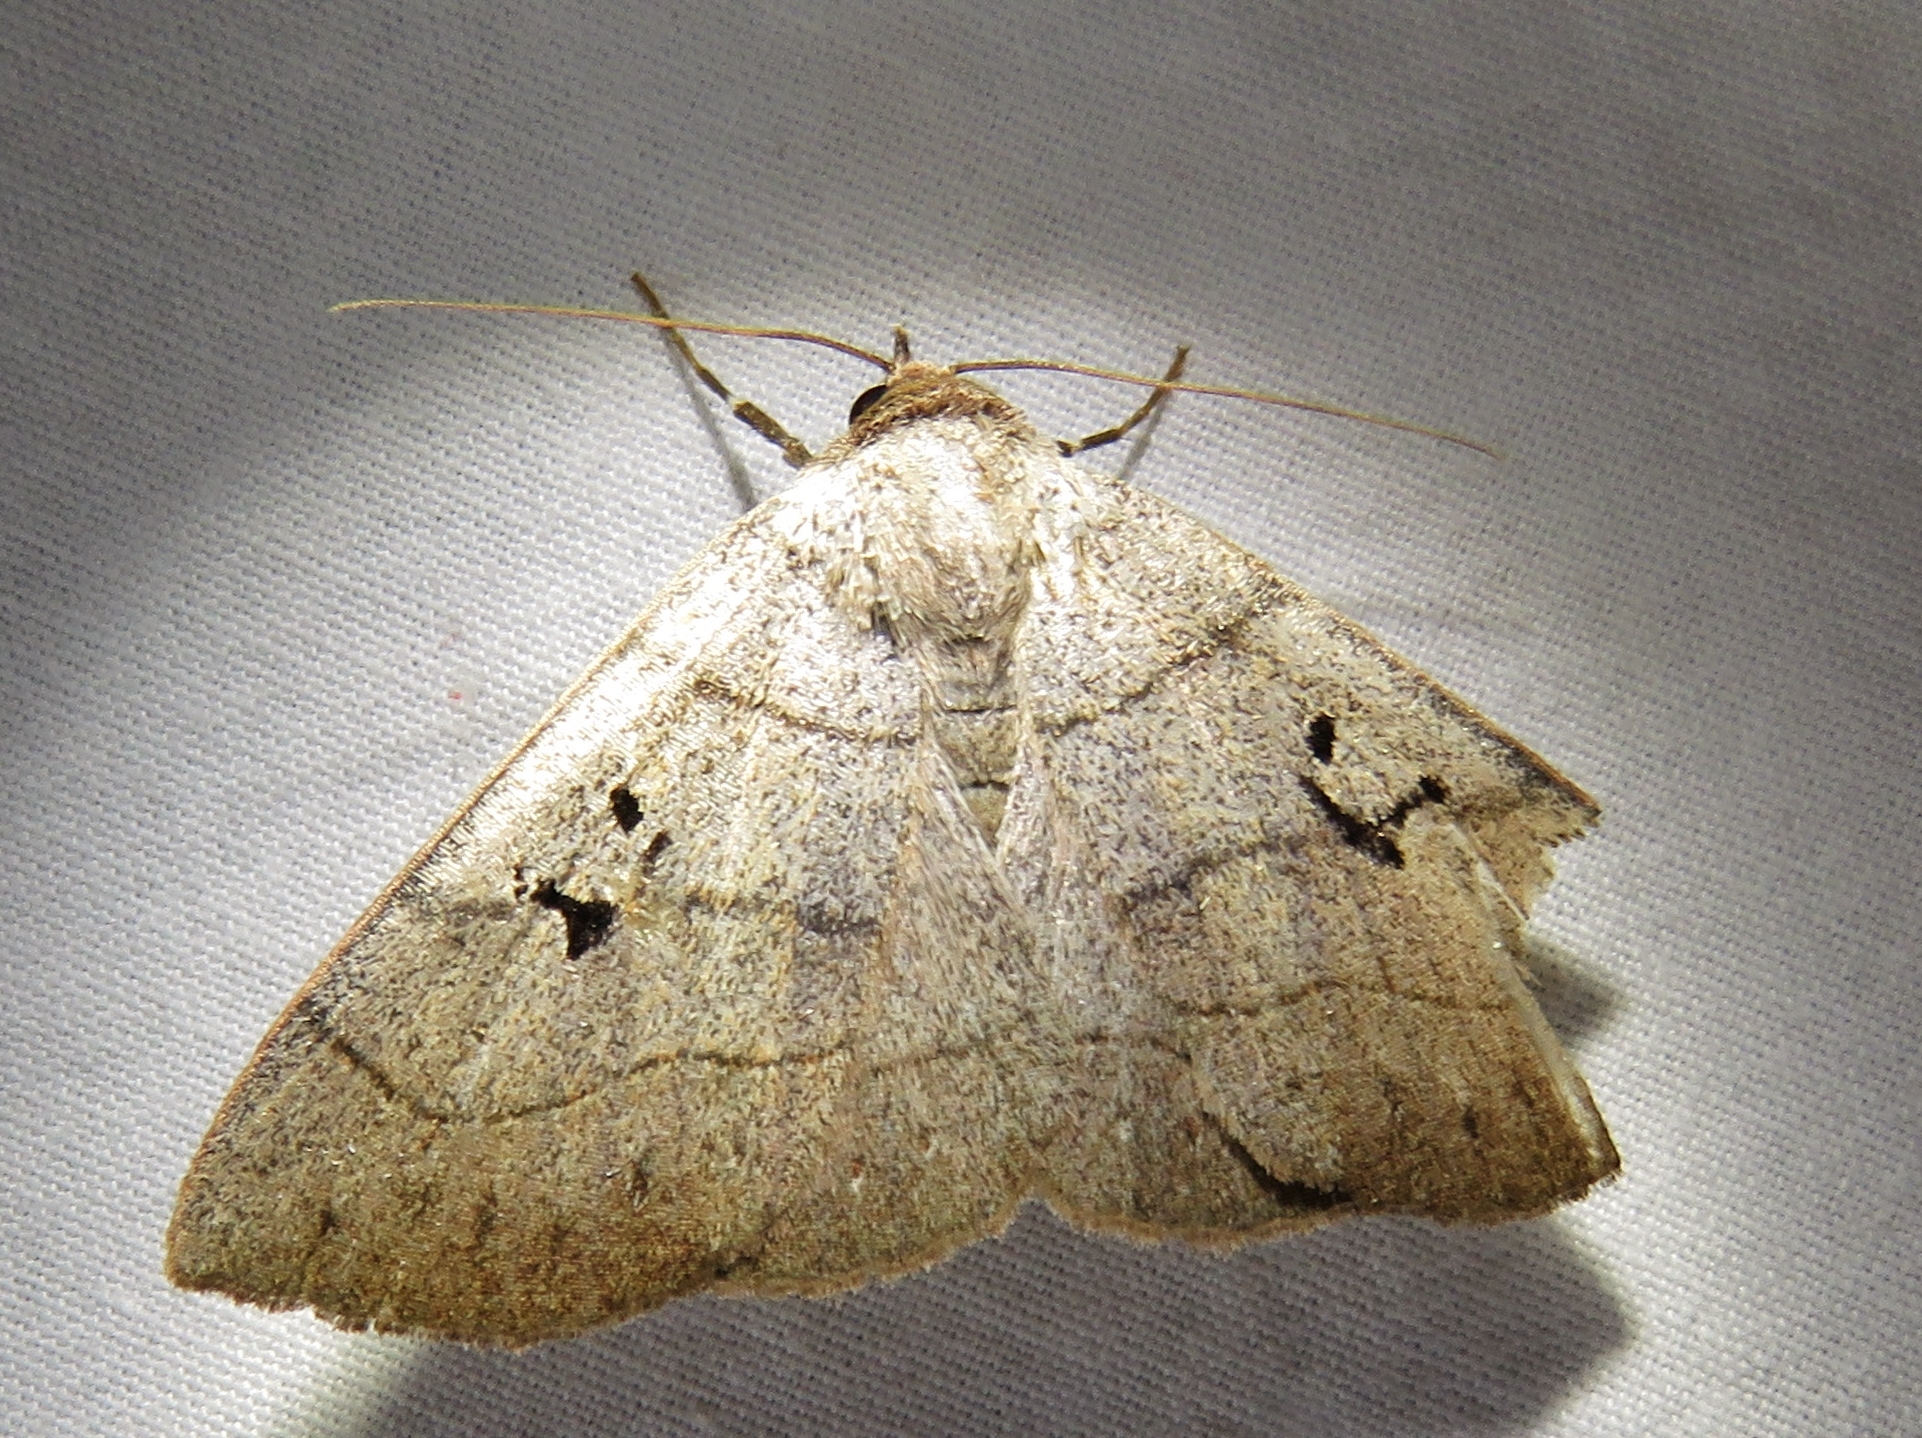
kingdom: Animalia
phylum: Arthropoda
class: Insecta
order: Lepidoptera
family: Erebidae
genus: Panopoda
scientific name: Panopoda carneicosta
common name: Brown panopoda moth
